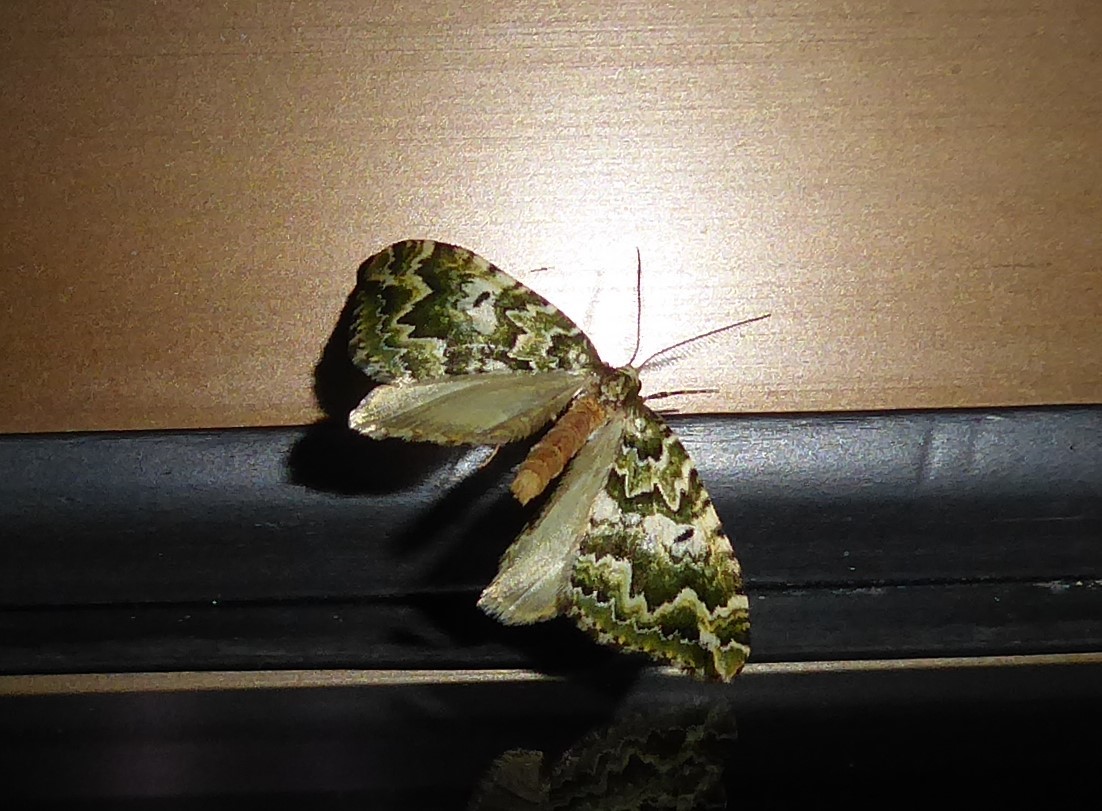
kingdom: Animalia
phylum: Arthropoda
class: Insecta
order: Lepidoptera
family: Geometridae
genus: Asaphodes
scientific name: Asaphodes beata
